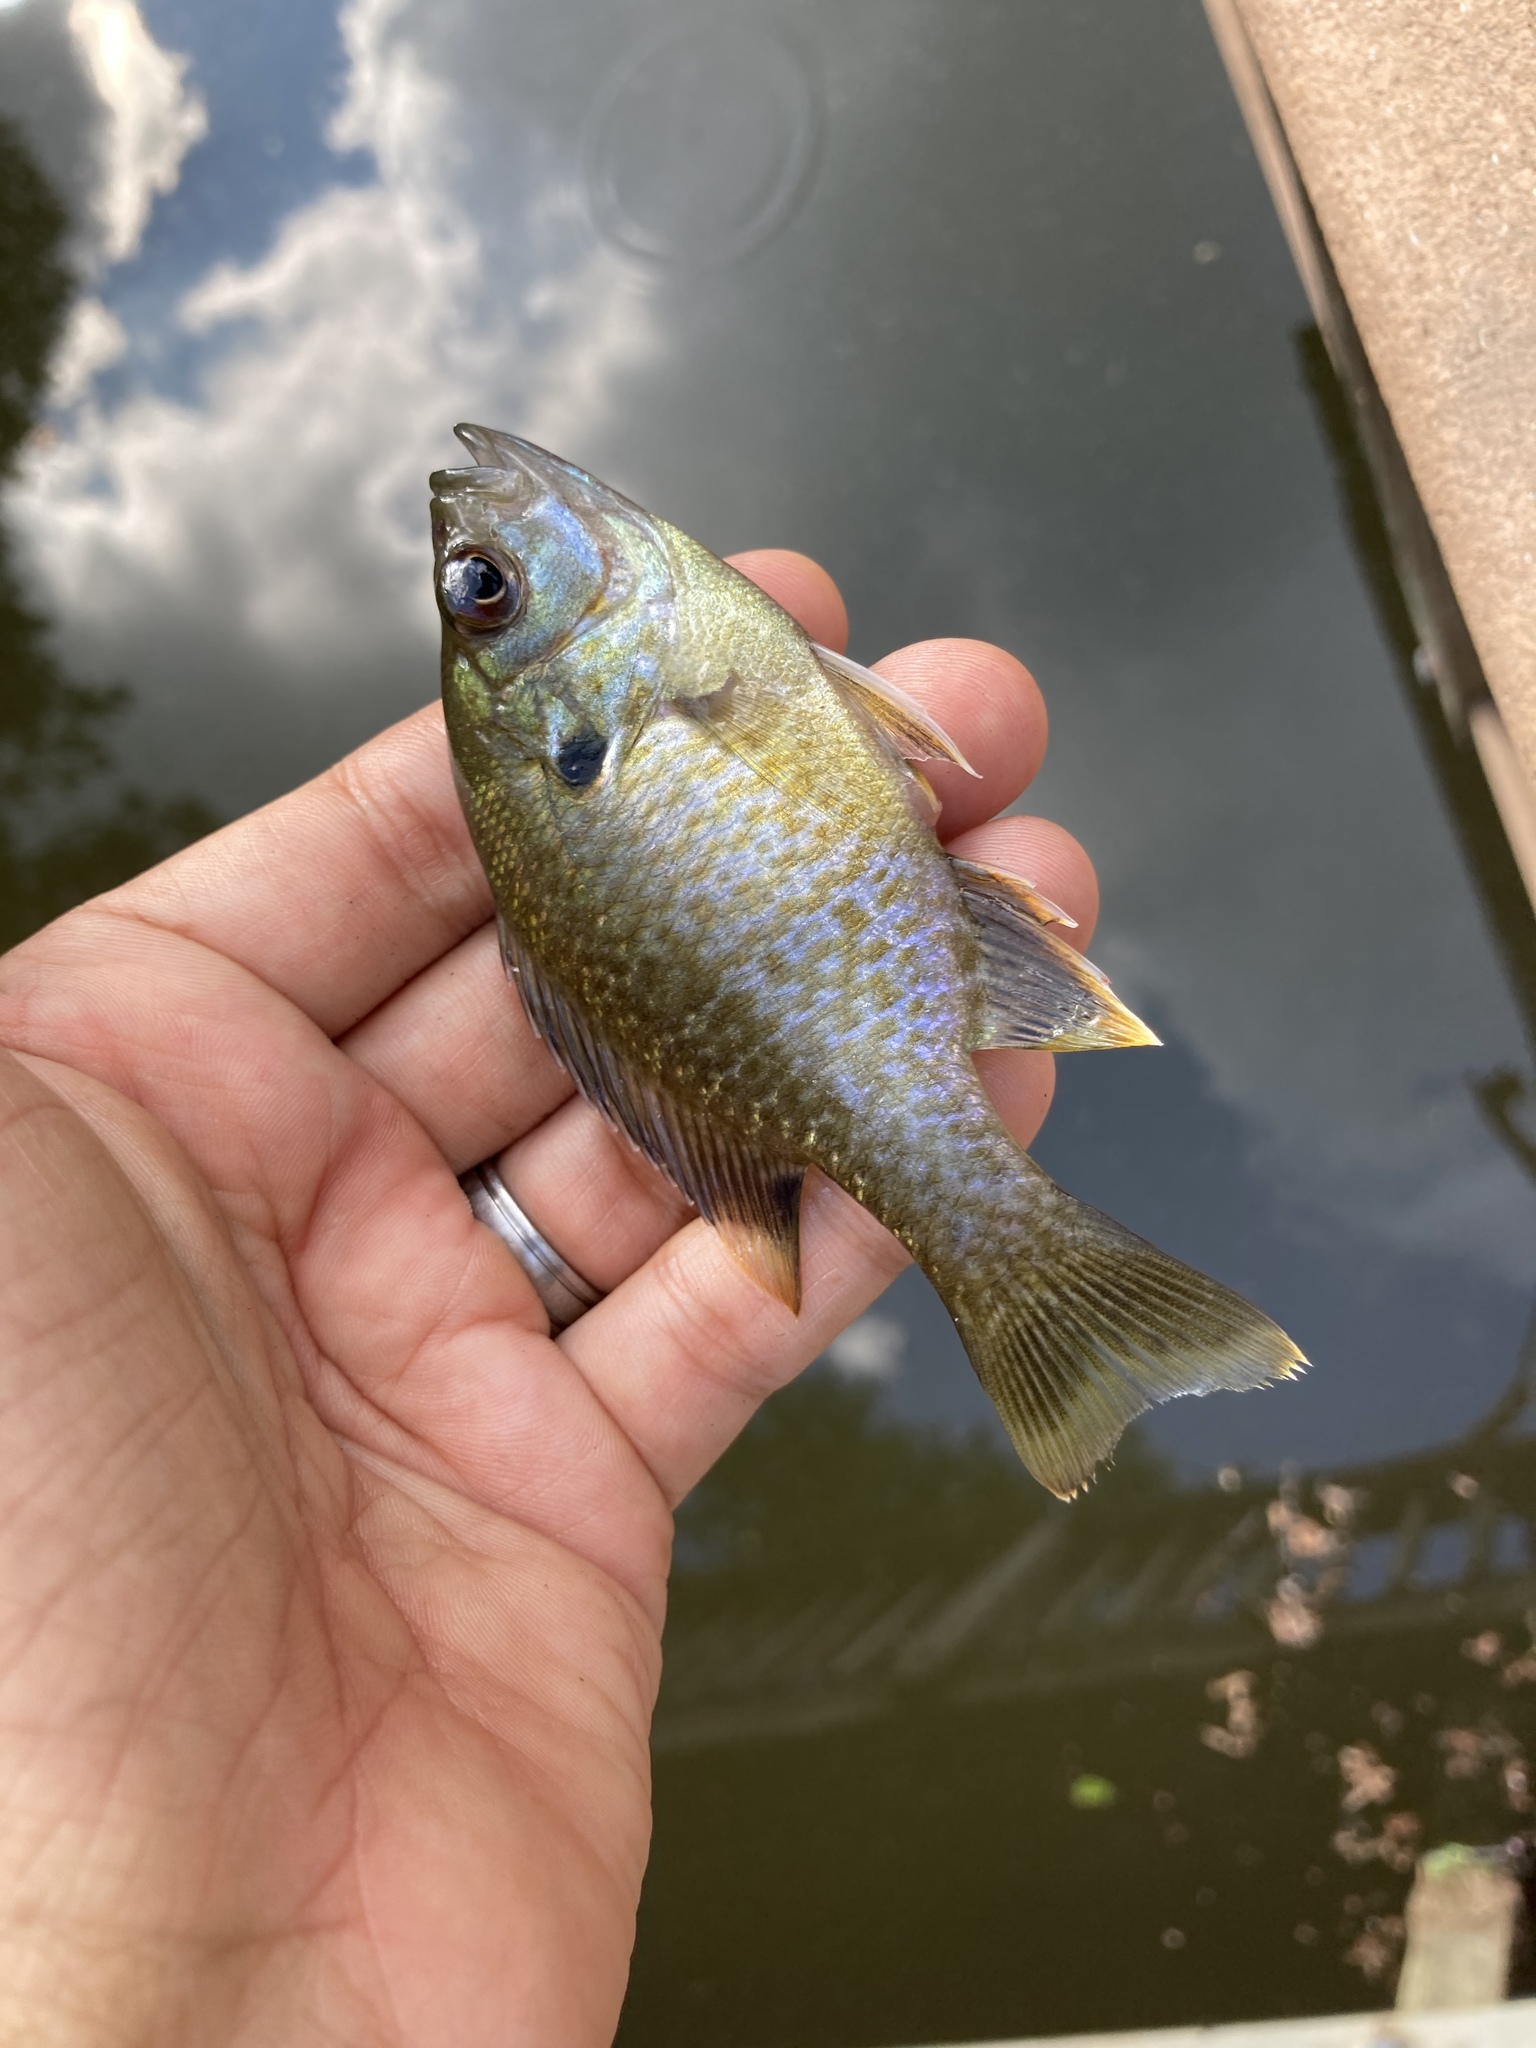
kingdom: Animalia
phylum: Chordata
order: Perciformes
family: Centrarchidae
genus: Lepomis
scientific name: Lepomis
